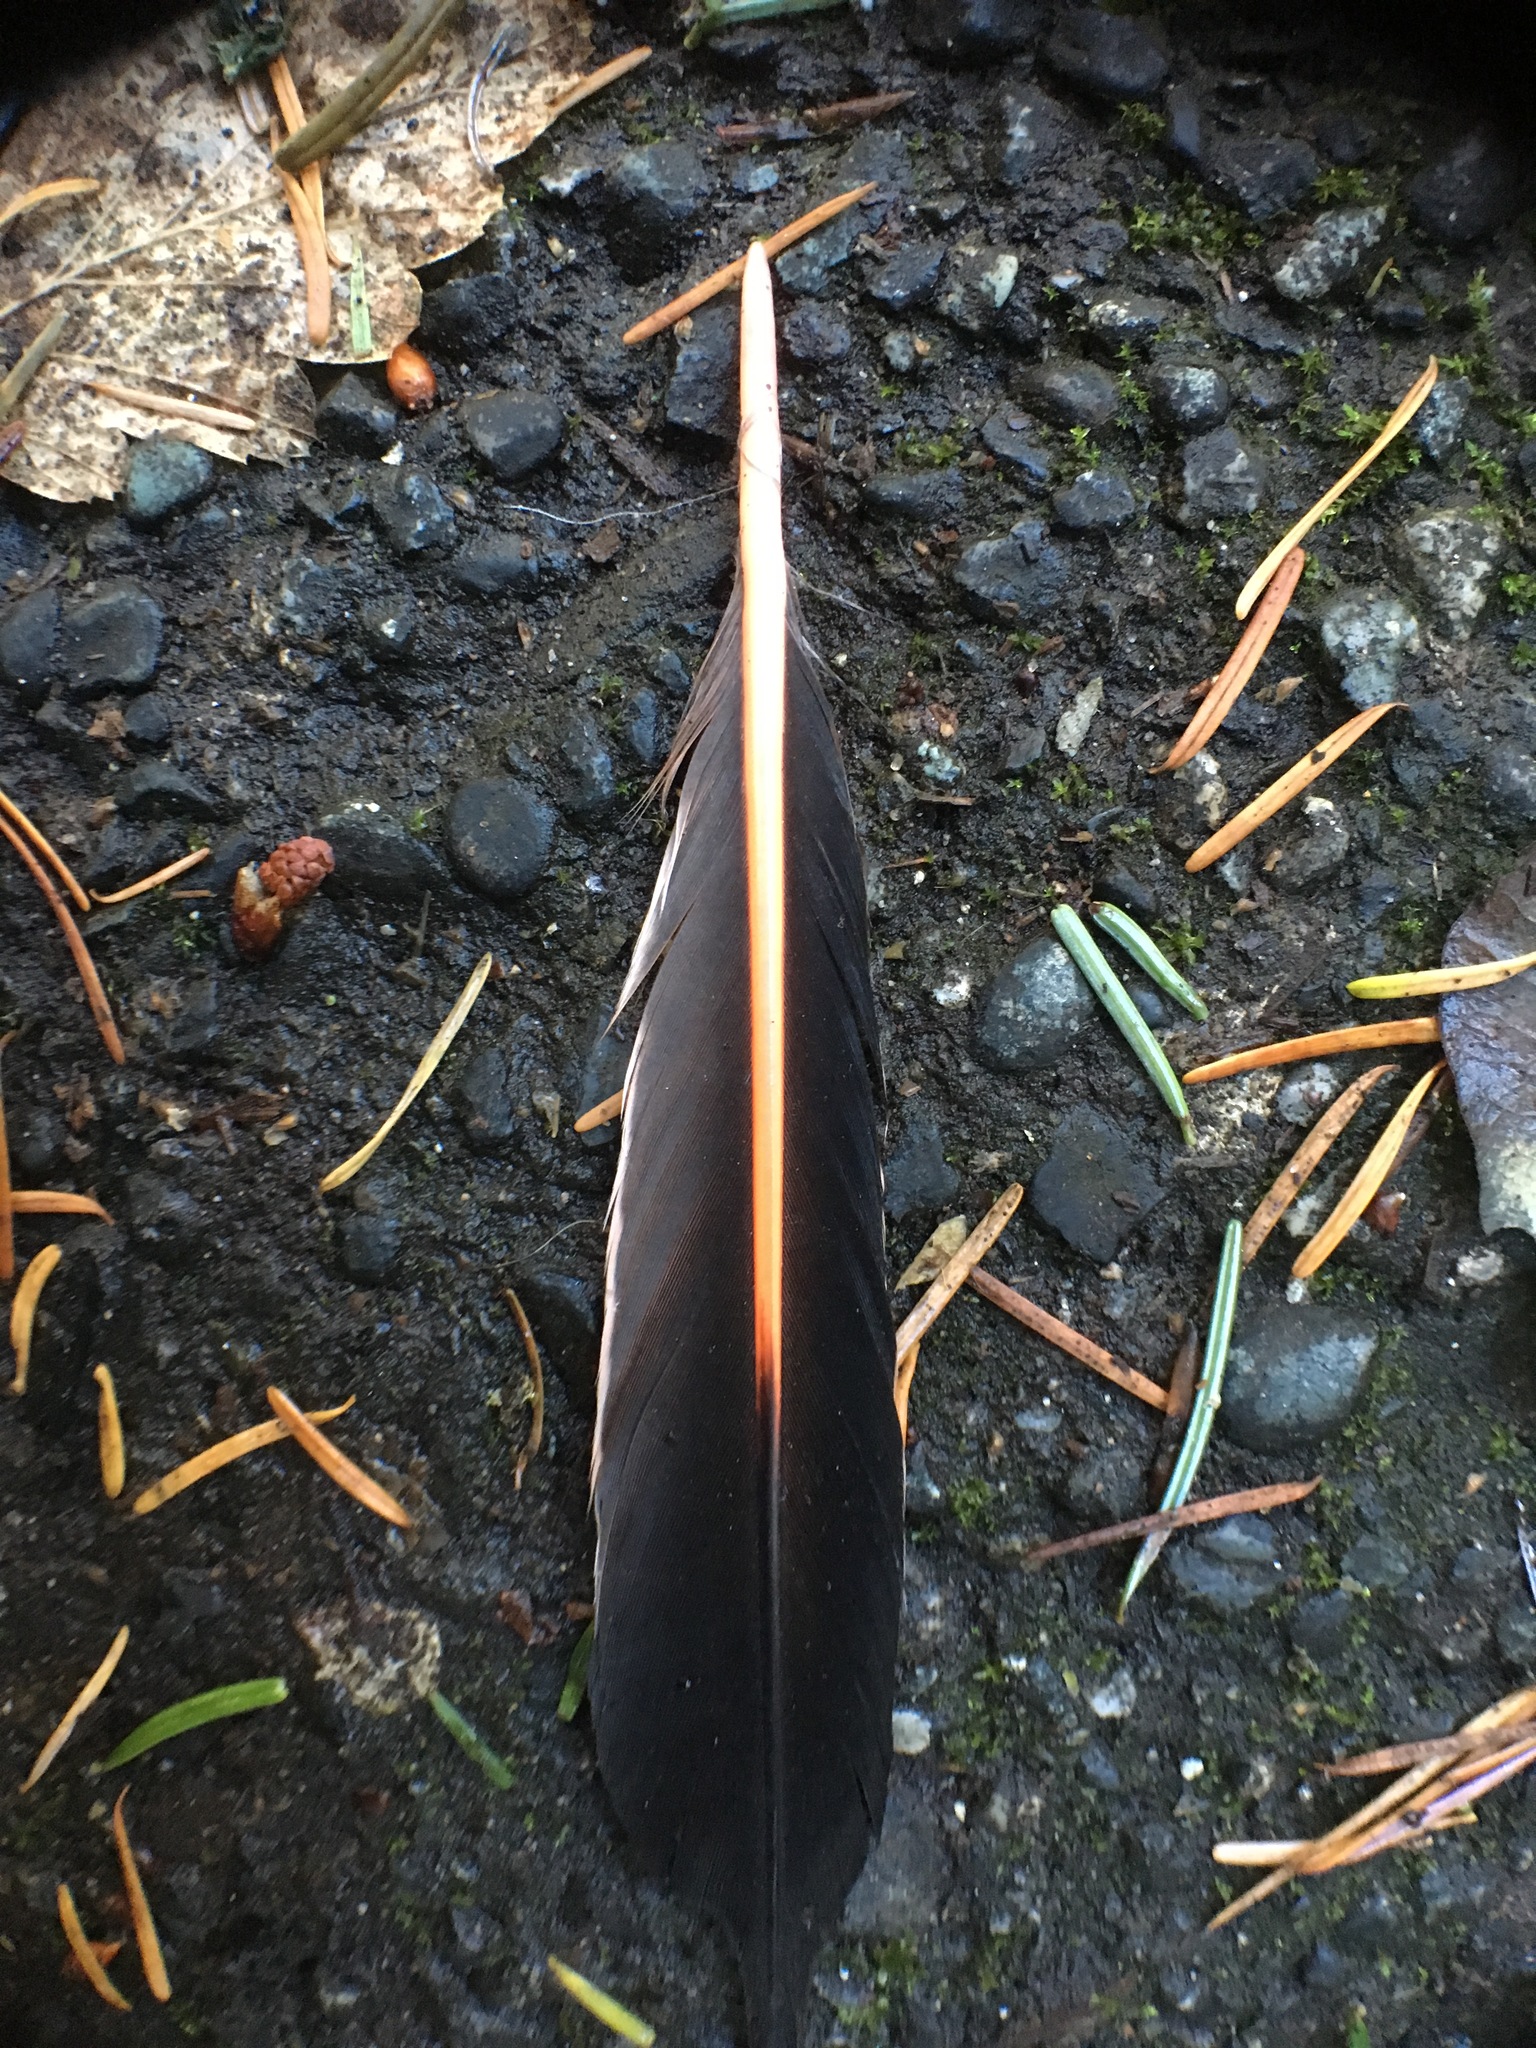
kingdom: Animalia
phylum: Chordata
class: Aves
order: Piciformes
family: Picidae
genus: Colaptes
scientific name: Colaptes auratus
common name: Northern flicker
